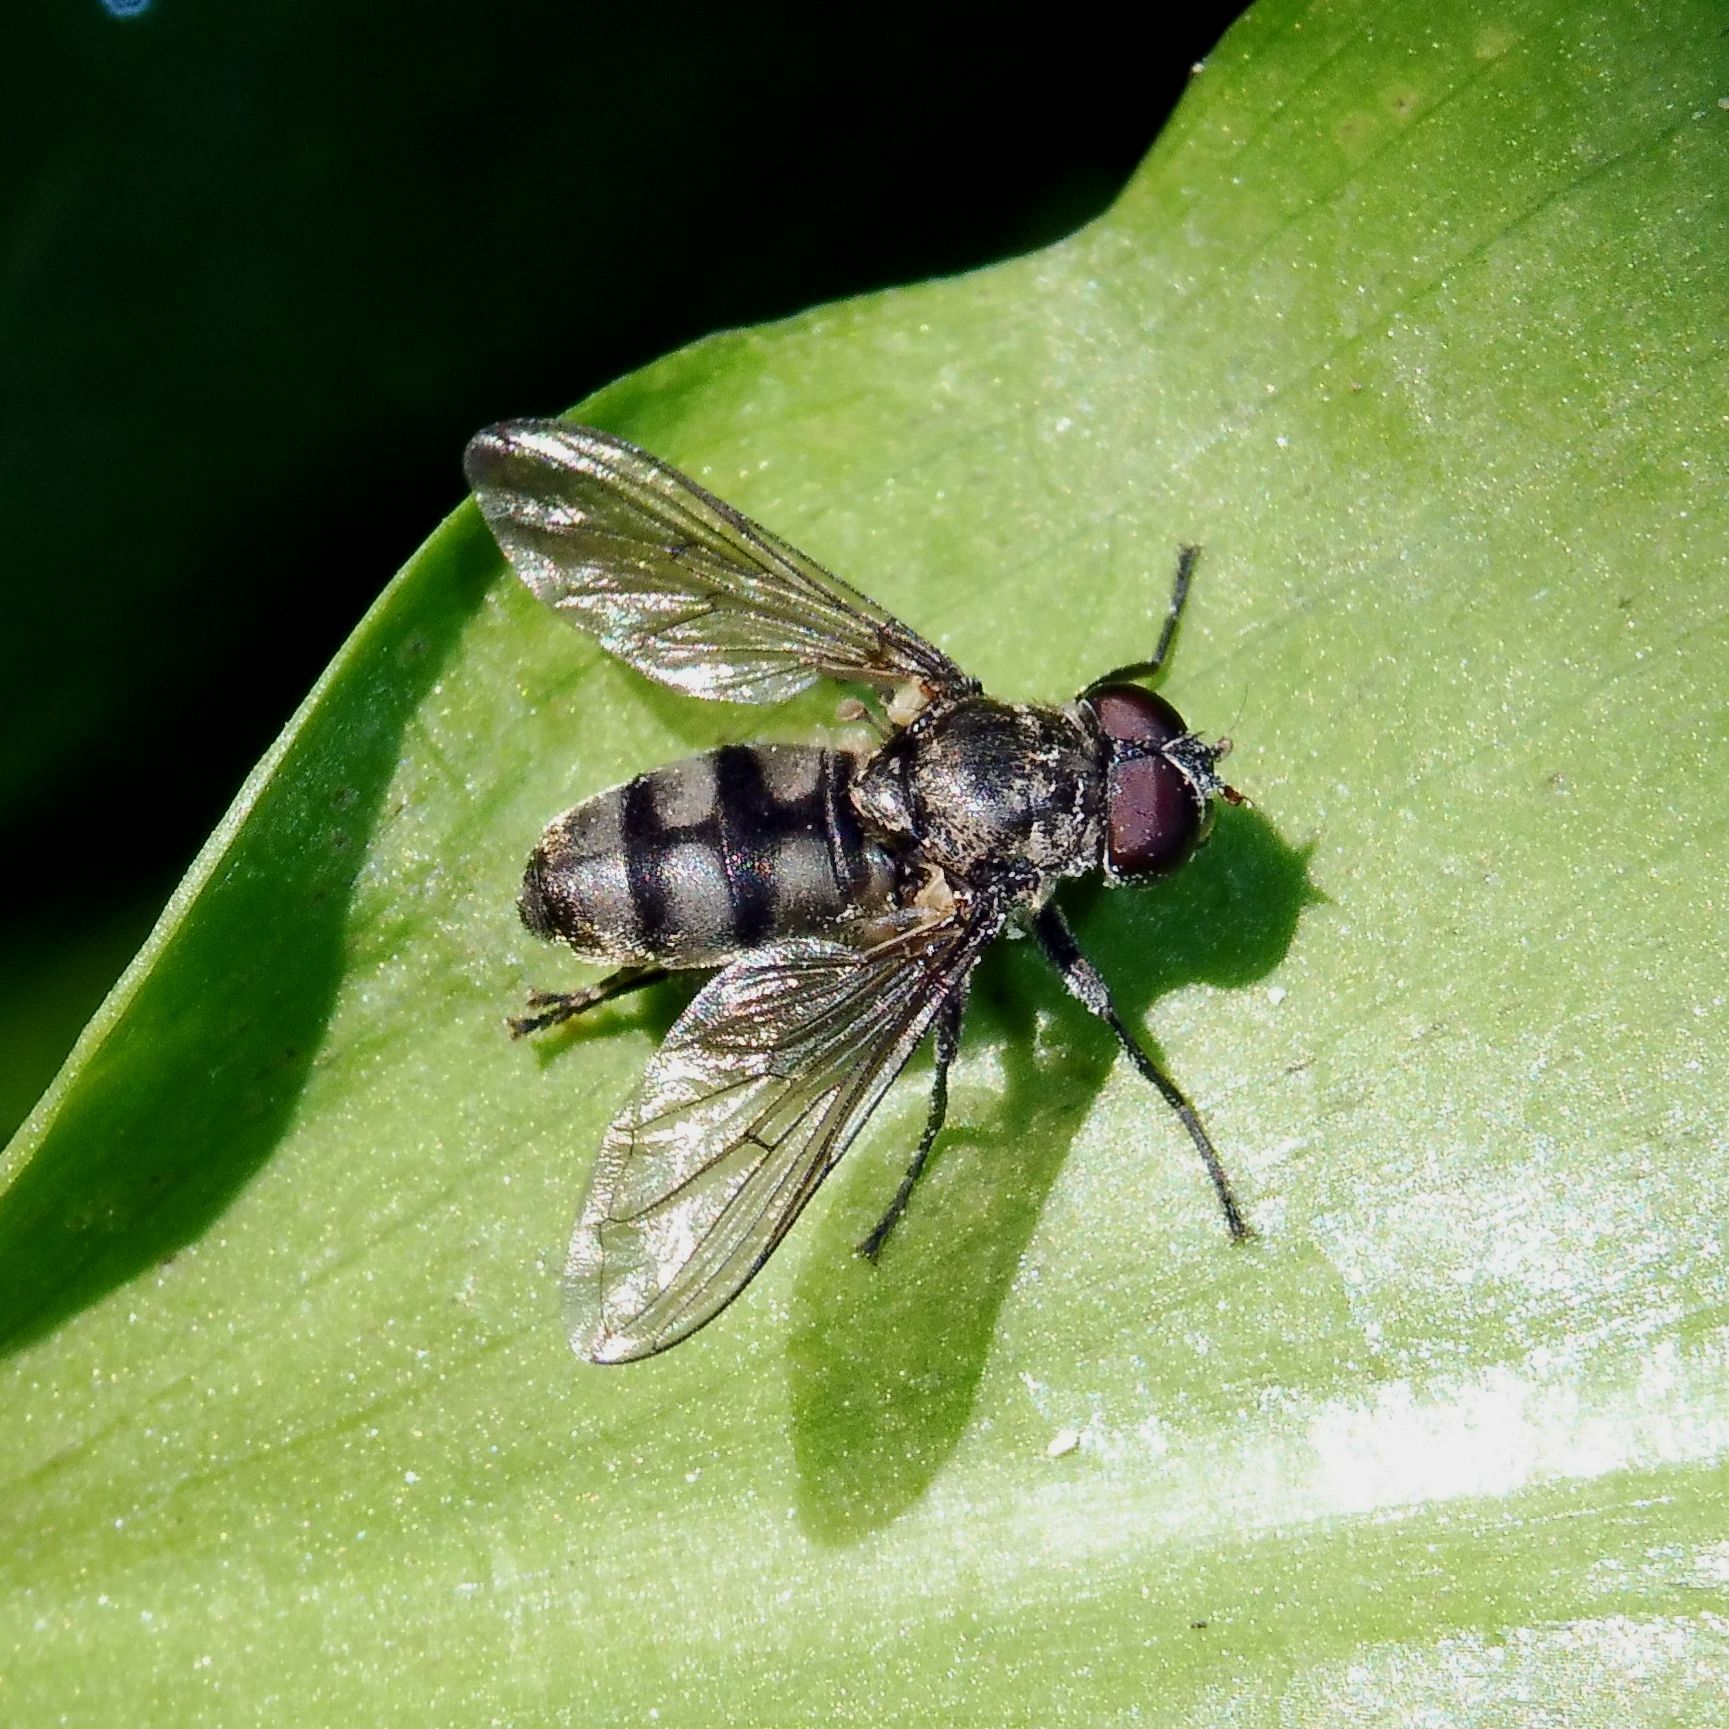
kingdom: Animalia
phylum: Arthropoda
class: Insecta
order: Diptera
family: Syrphidae
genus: Portevinia
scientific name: Portevinia maculata
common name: Ramson's hoverfly
